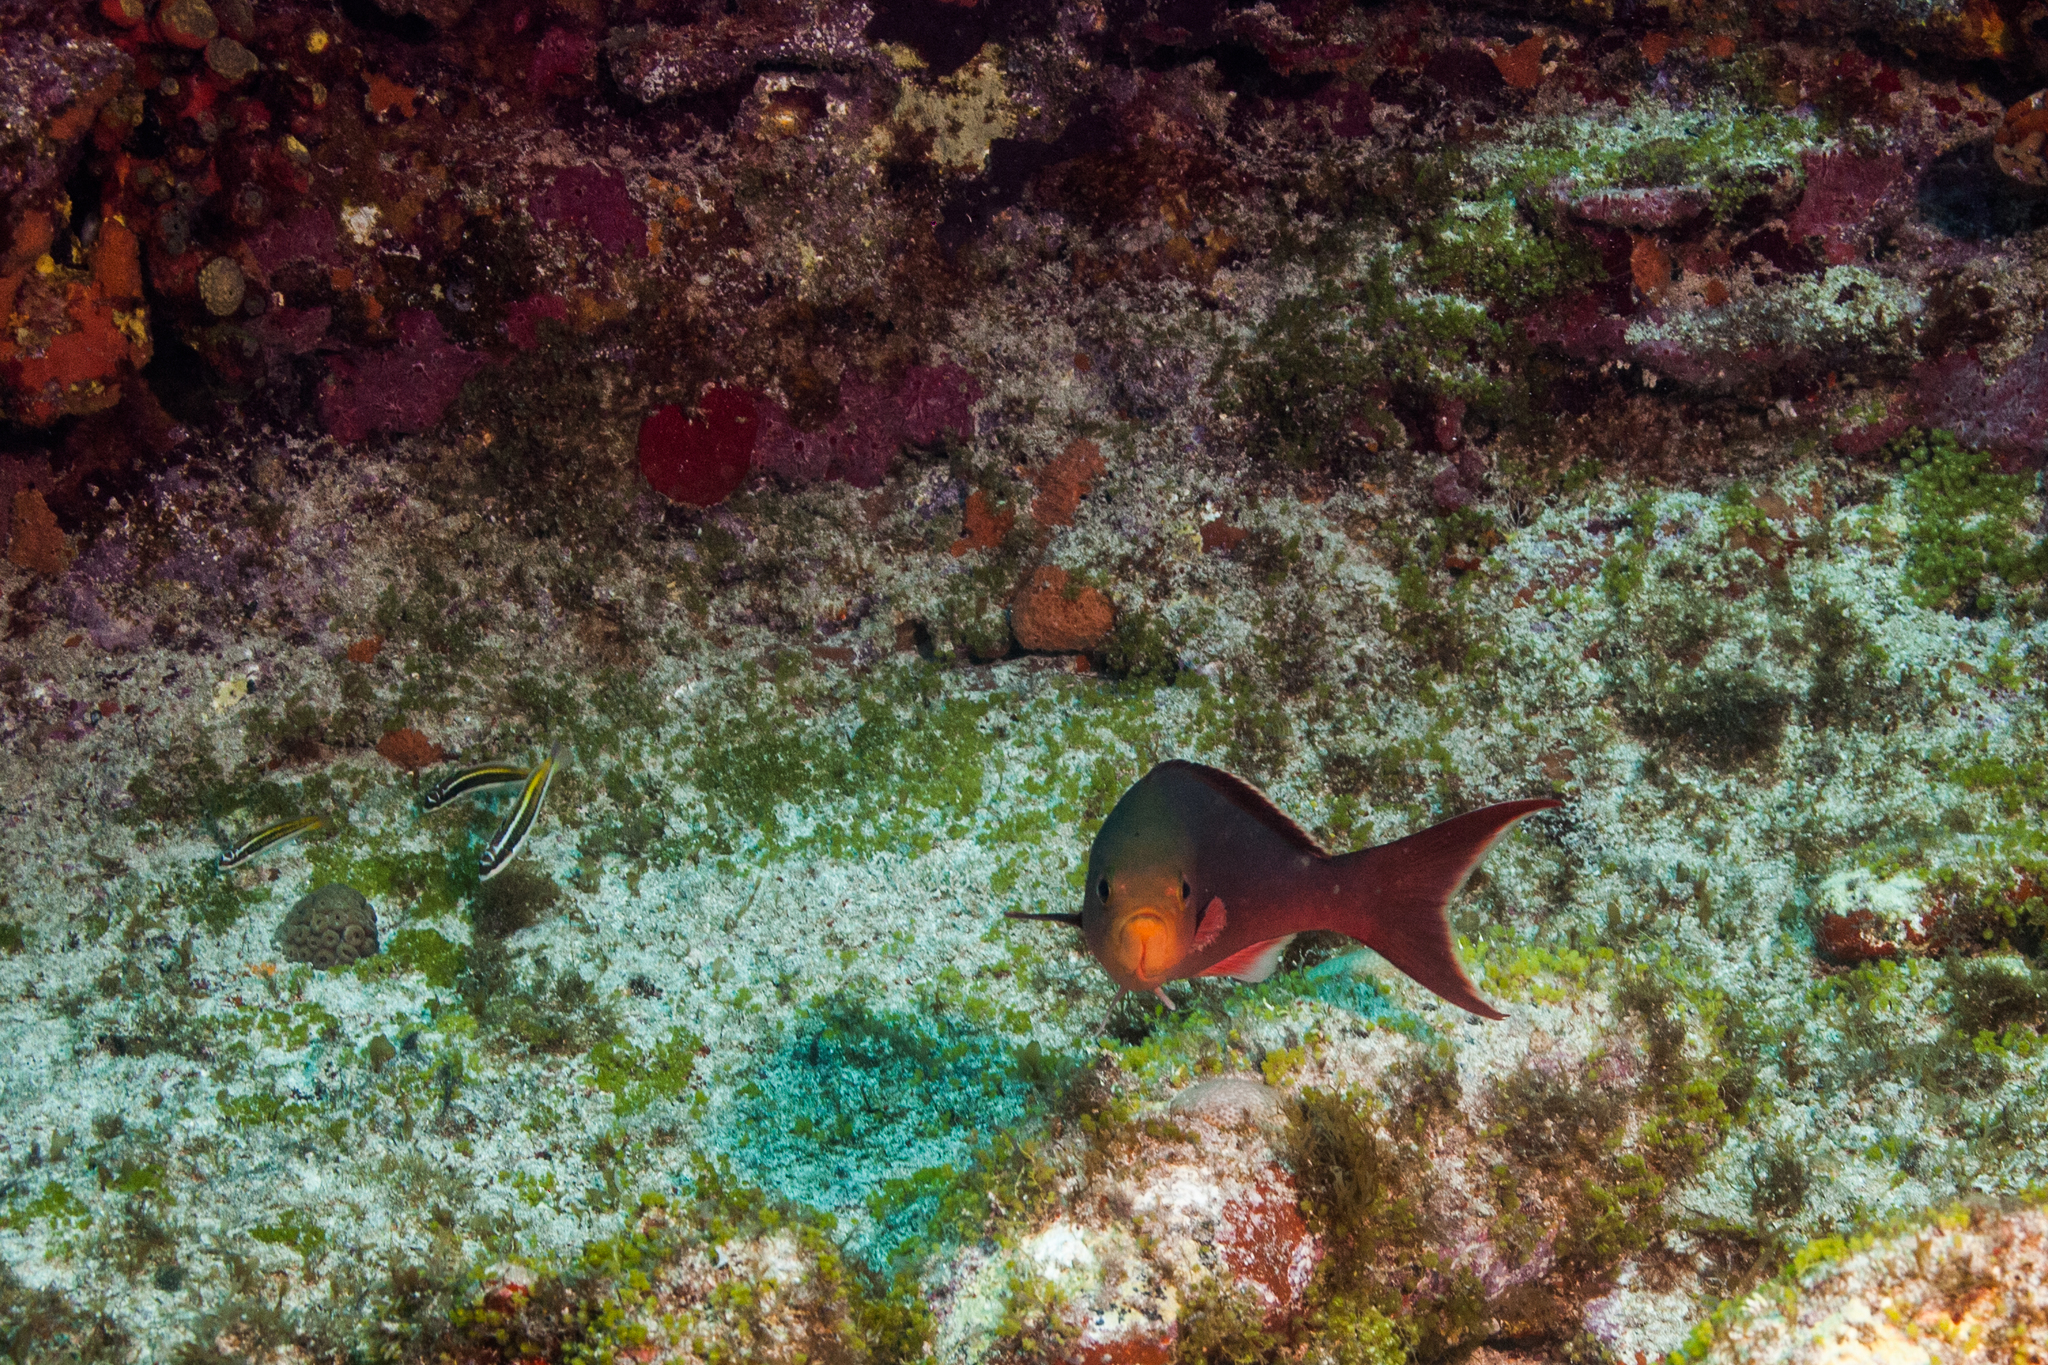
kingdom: Animalia
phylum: Chordata
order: Perciformes
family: Serranidae
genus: Paranthias
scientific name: Paranthias furcifer
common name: Creole-fish
